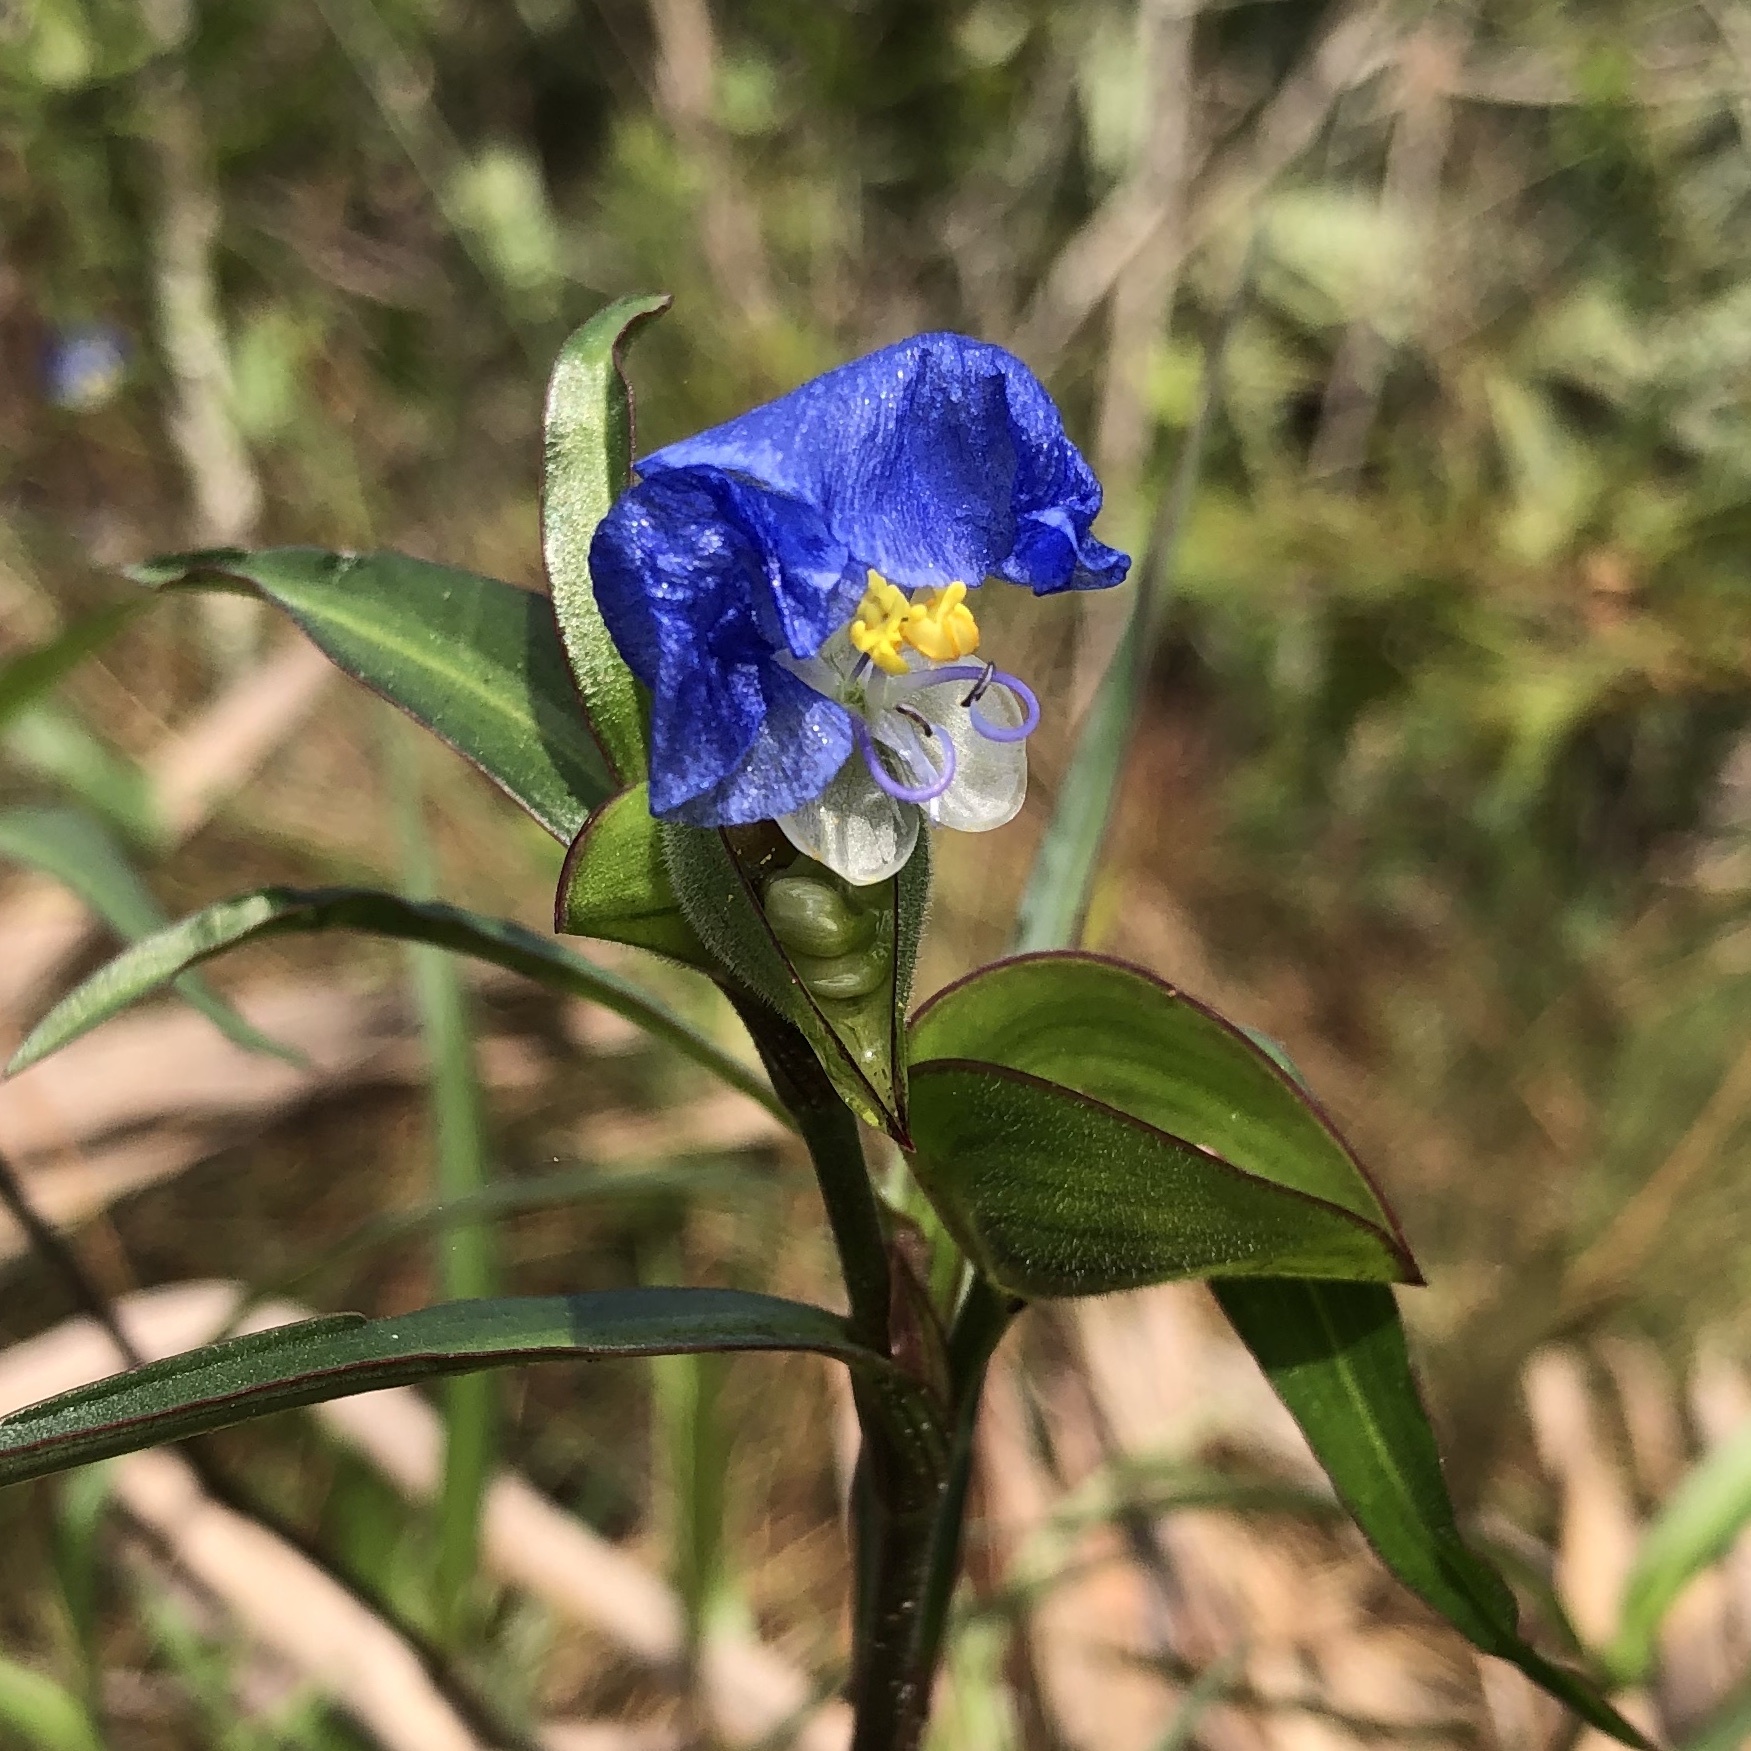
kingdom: Plantae
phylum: Tracheophyta
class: Liliopsida
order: Commelinales
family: Commelinaceae
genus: Commelina
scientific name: Commelina erecta
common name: Blousel blommetjie
